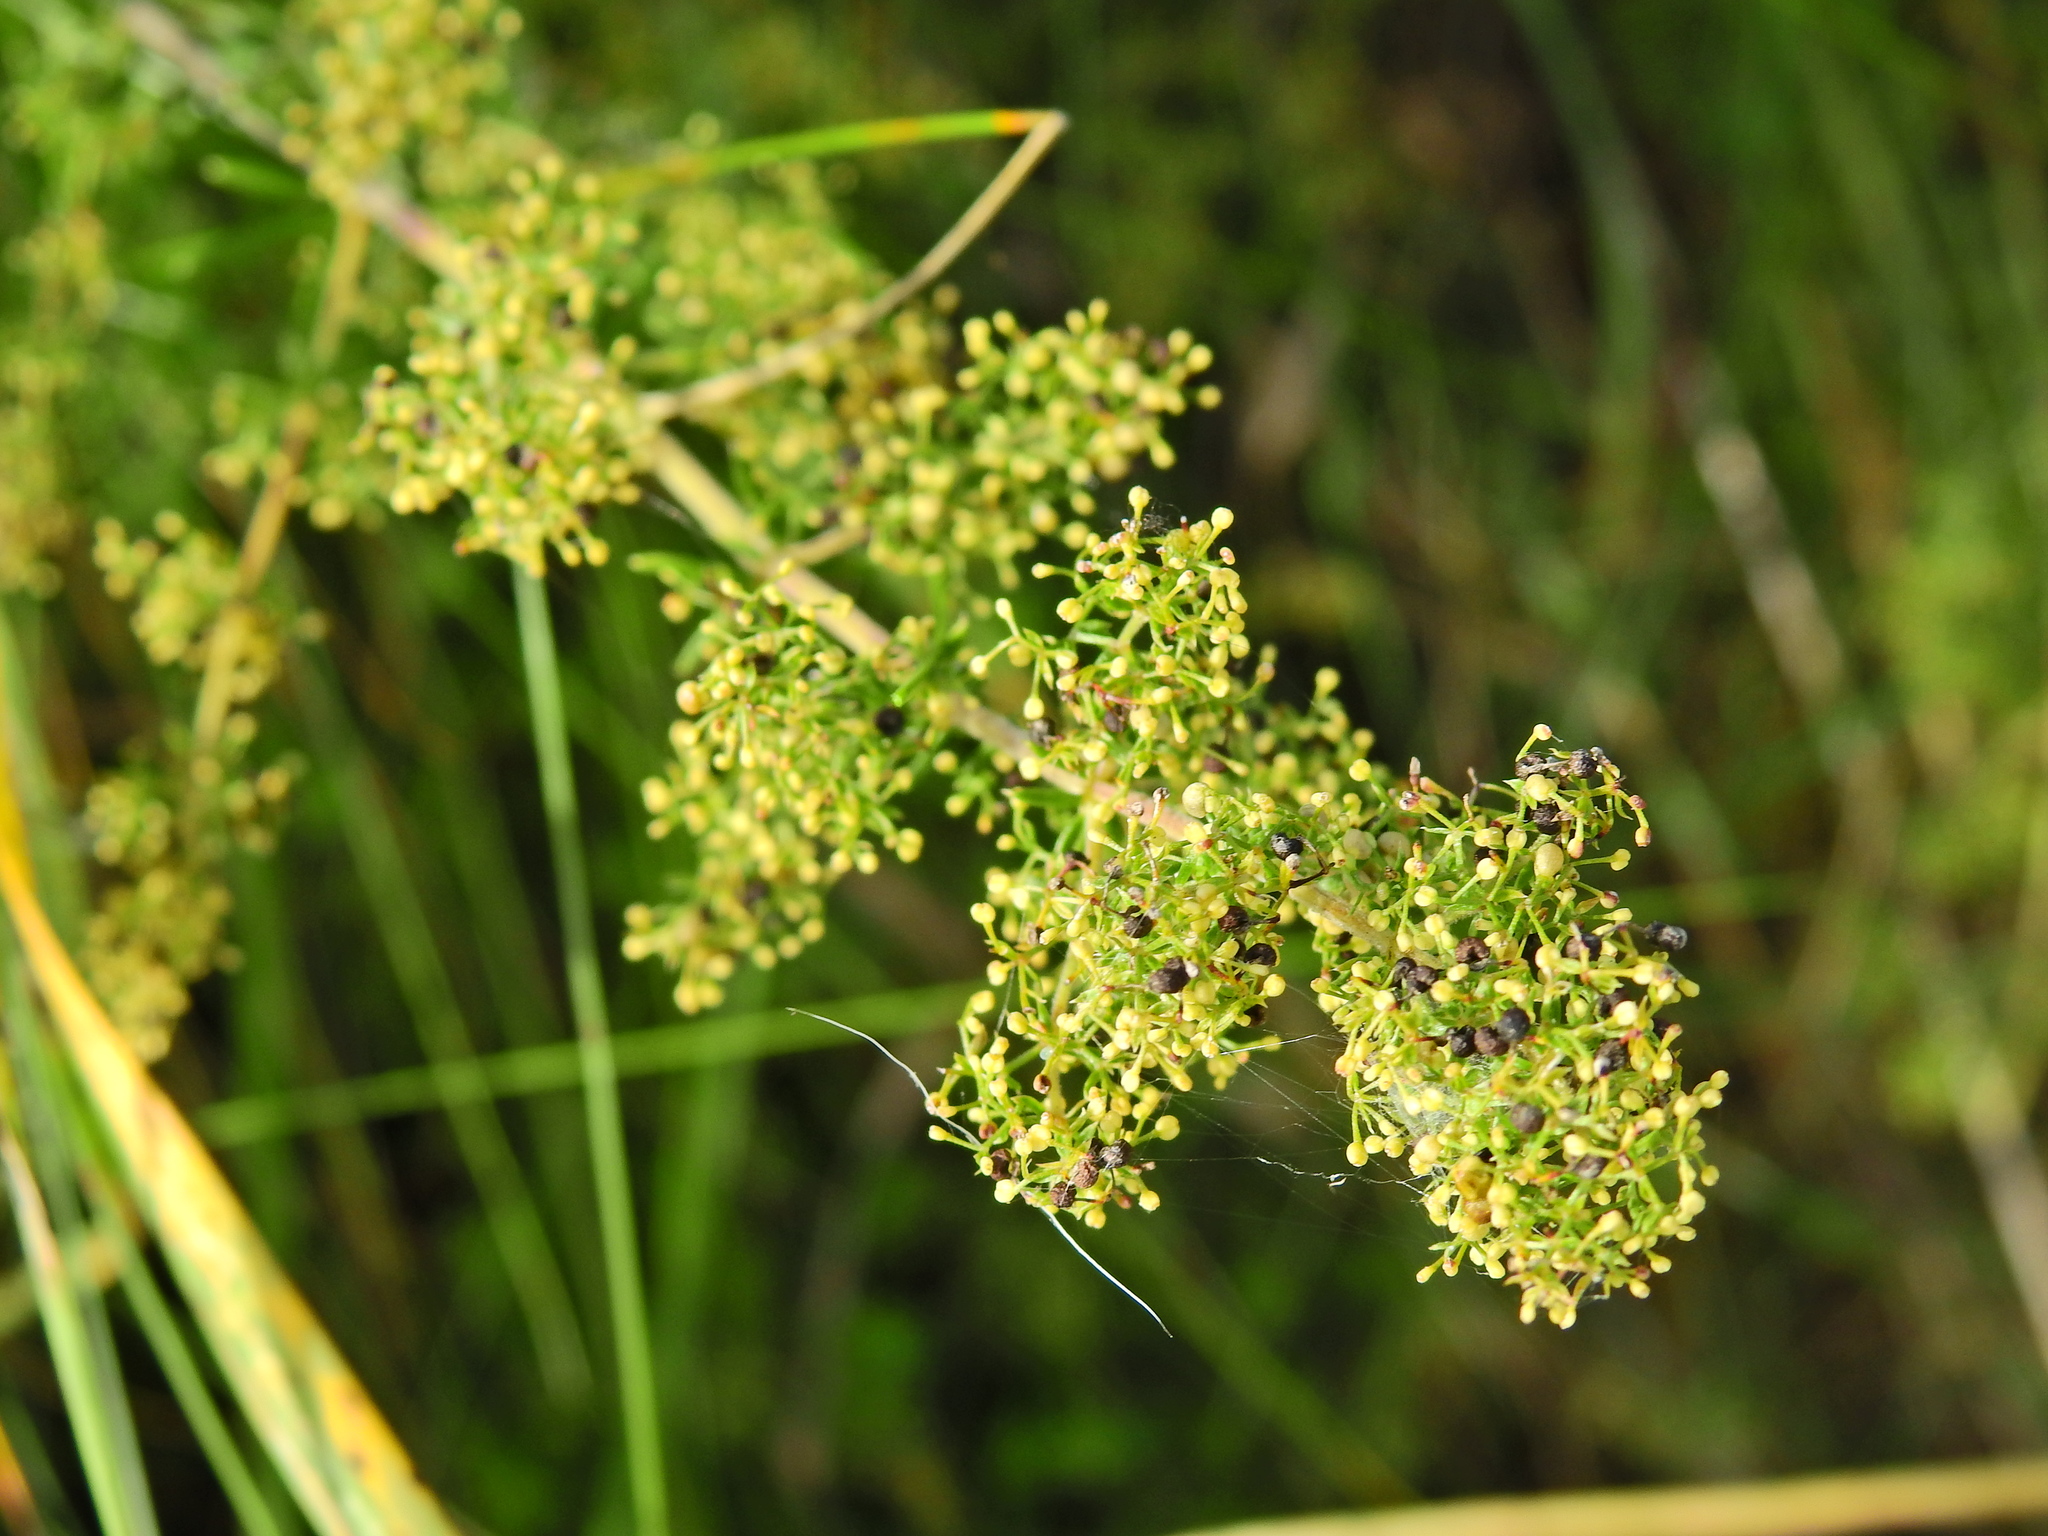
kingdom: Plantae
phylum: Tracheophyta
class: Magnoliopsida
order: Gentianales
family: Rubiaceae
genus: Galium
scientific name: Galium verum
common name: Lady's bedstraw
